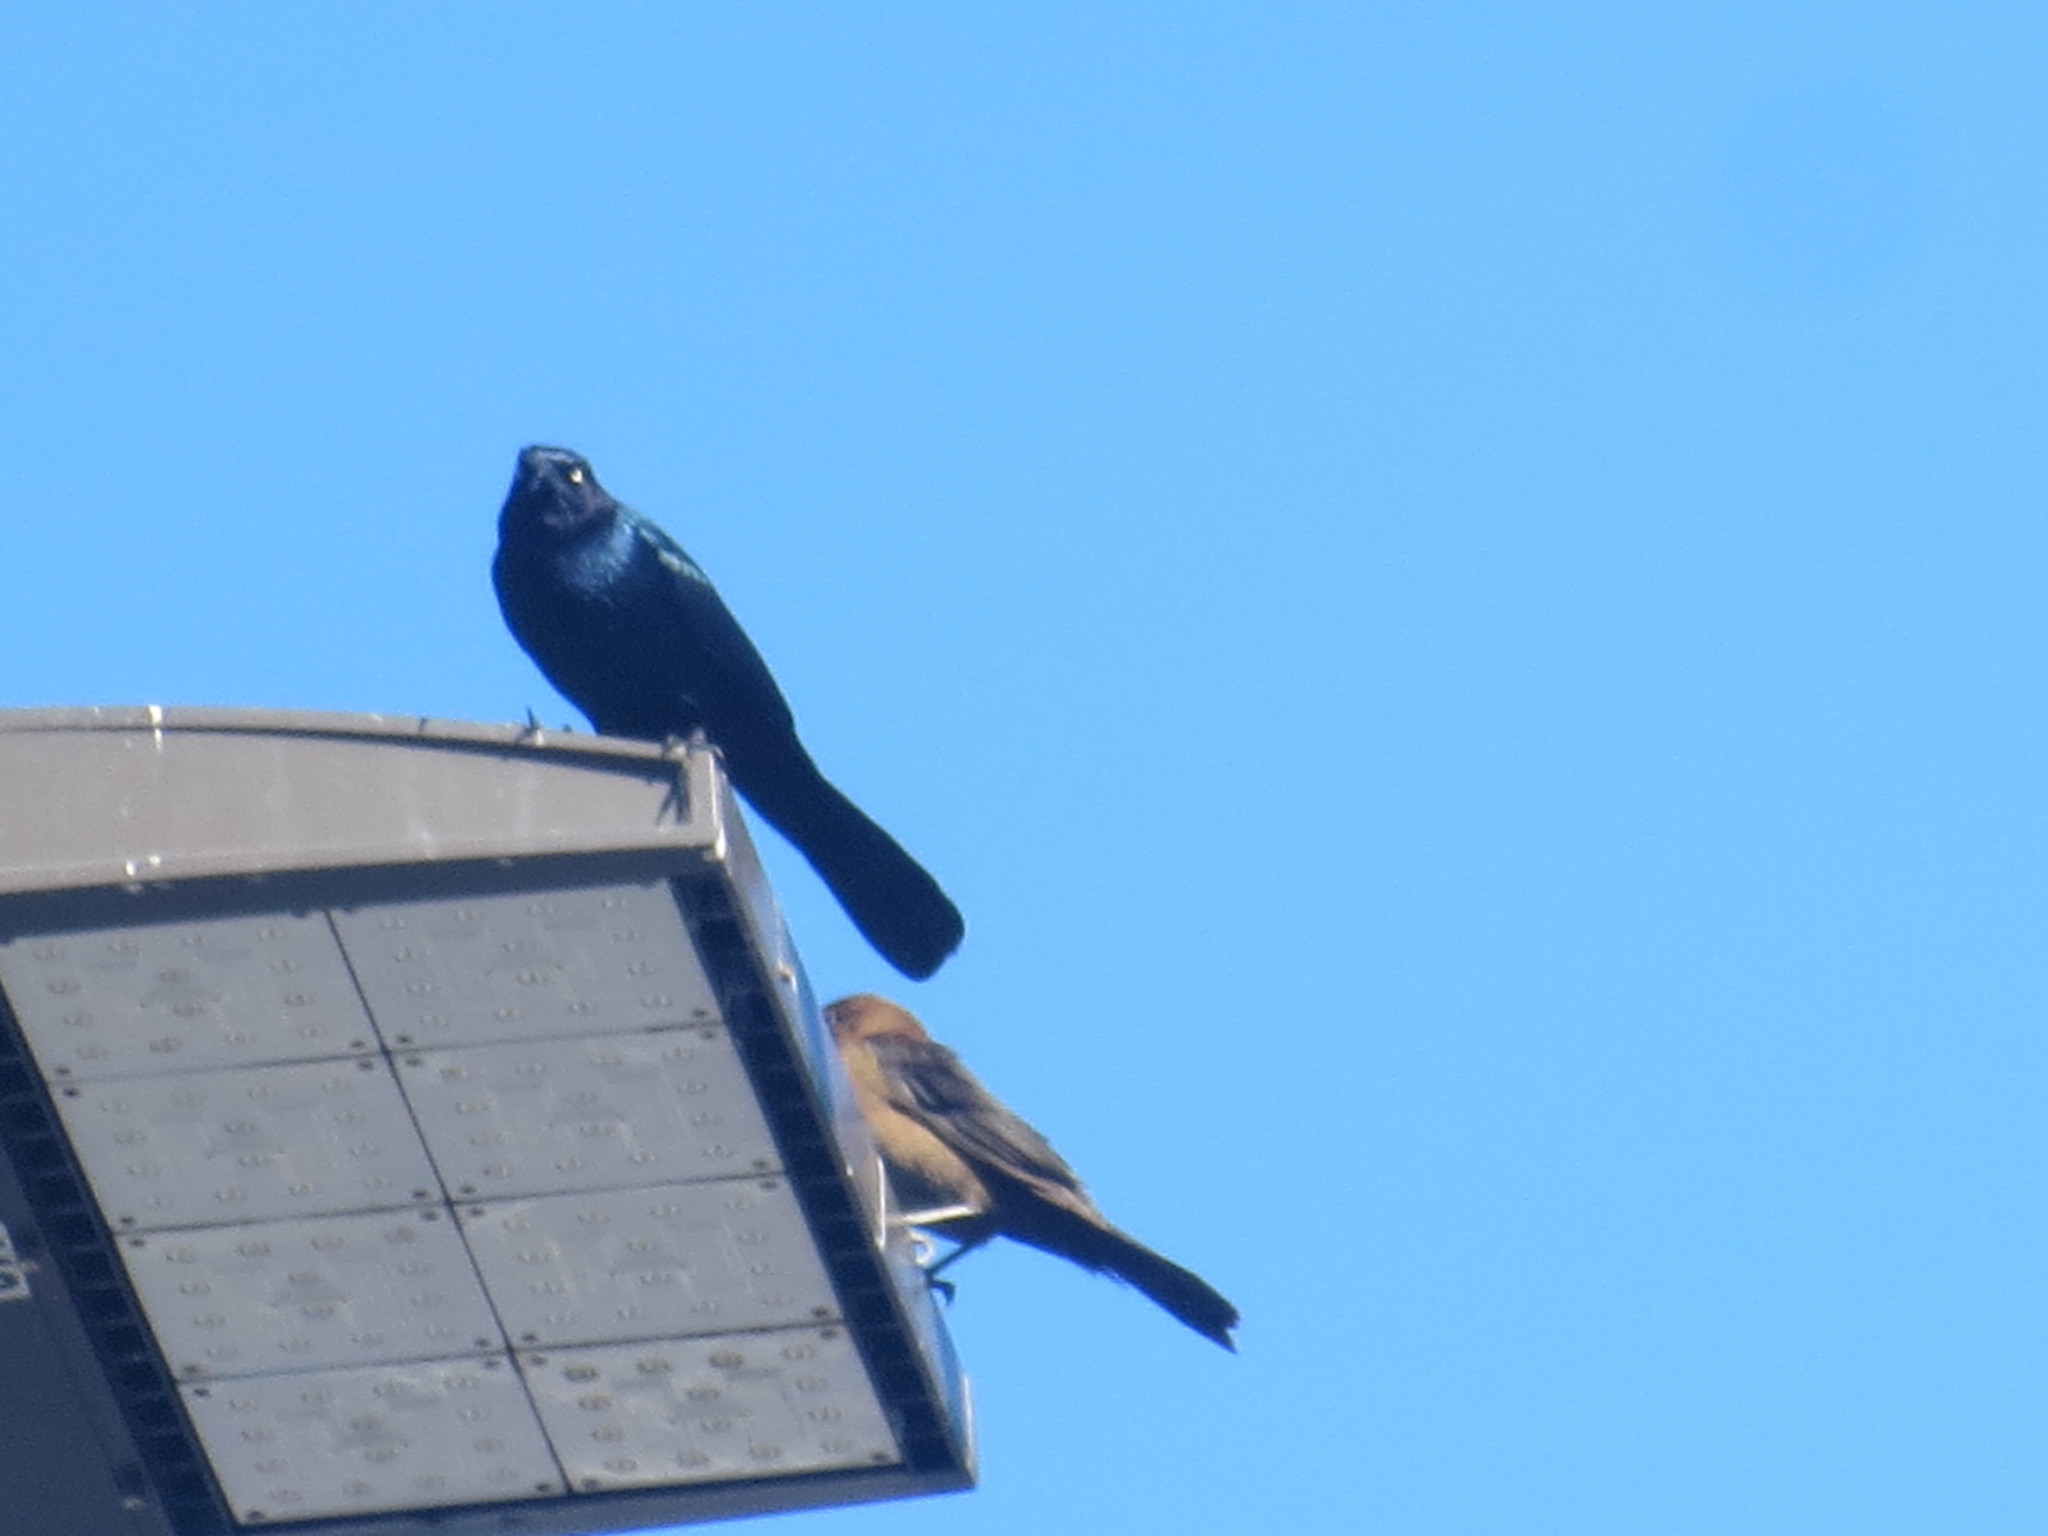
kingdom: Animalia
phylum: Chordata
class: Aves
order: Passeriformes
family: Icteridae
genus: Quiscalus
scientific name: Quiscalus major
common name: Boat-tailed grackle
